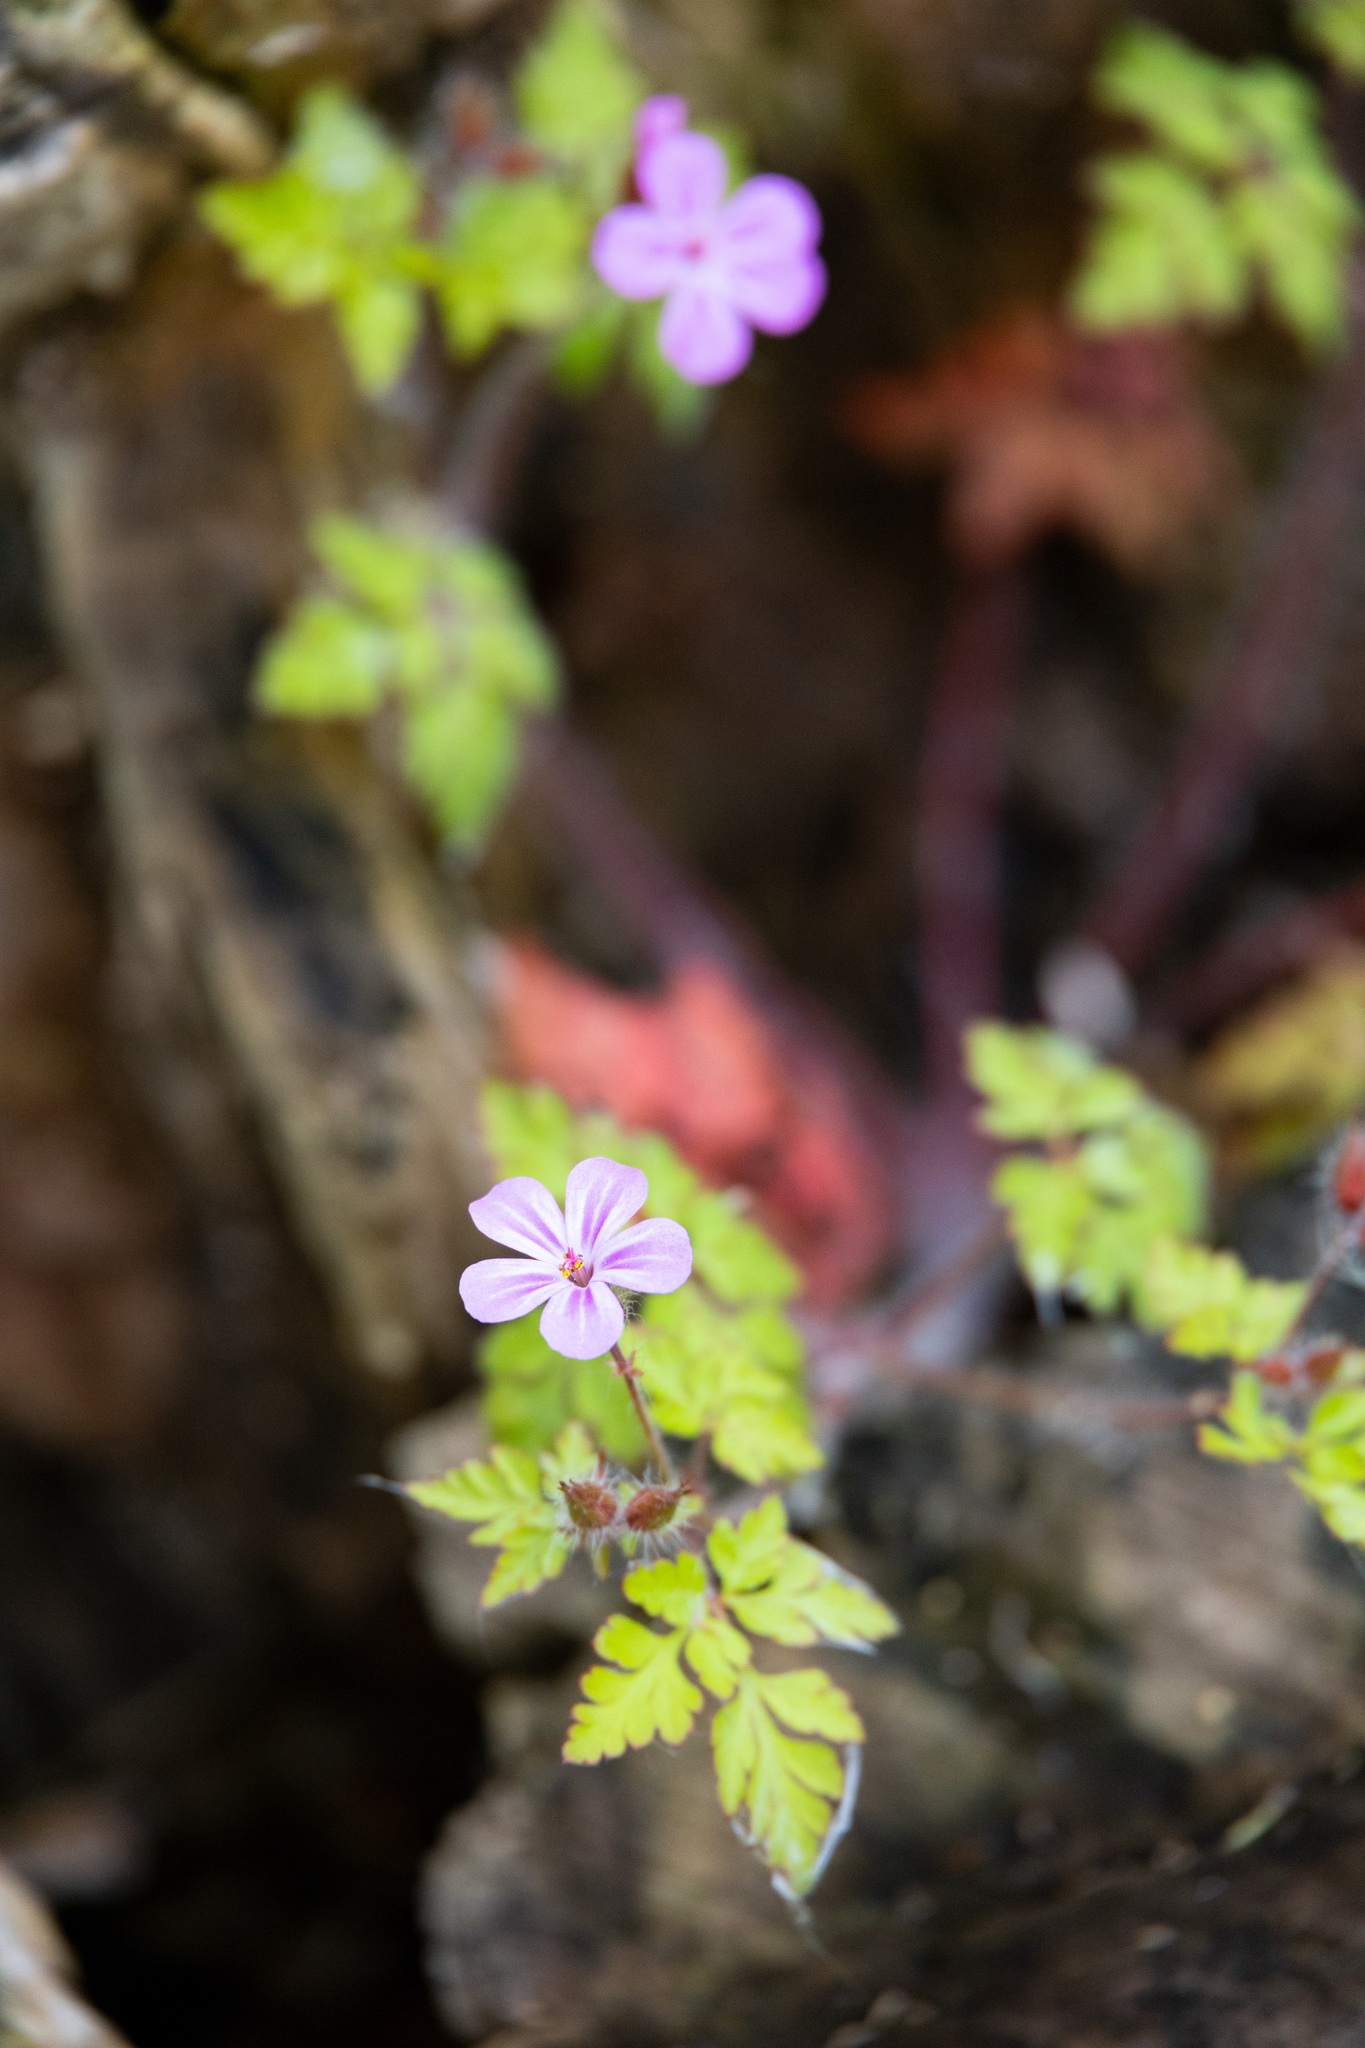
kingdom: Plantae
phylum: Tracheophyta
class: Magnoliopsida
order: Geraniales
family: Geraniaceae
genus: Geranium
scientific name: Geranium robertianum
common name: Herb-robert
